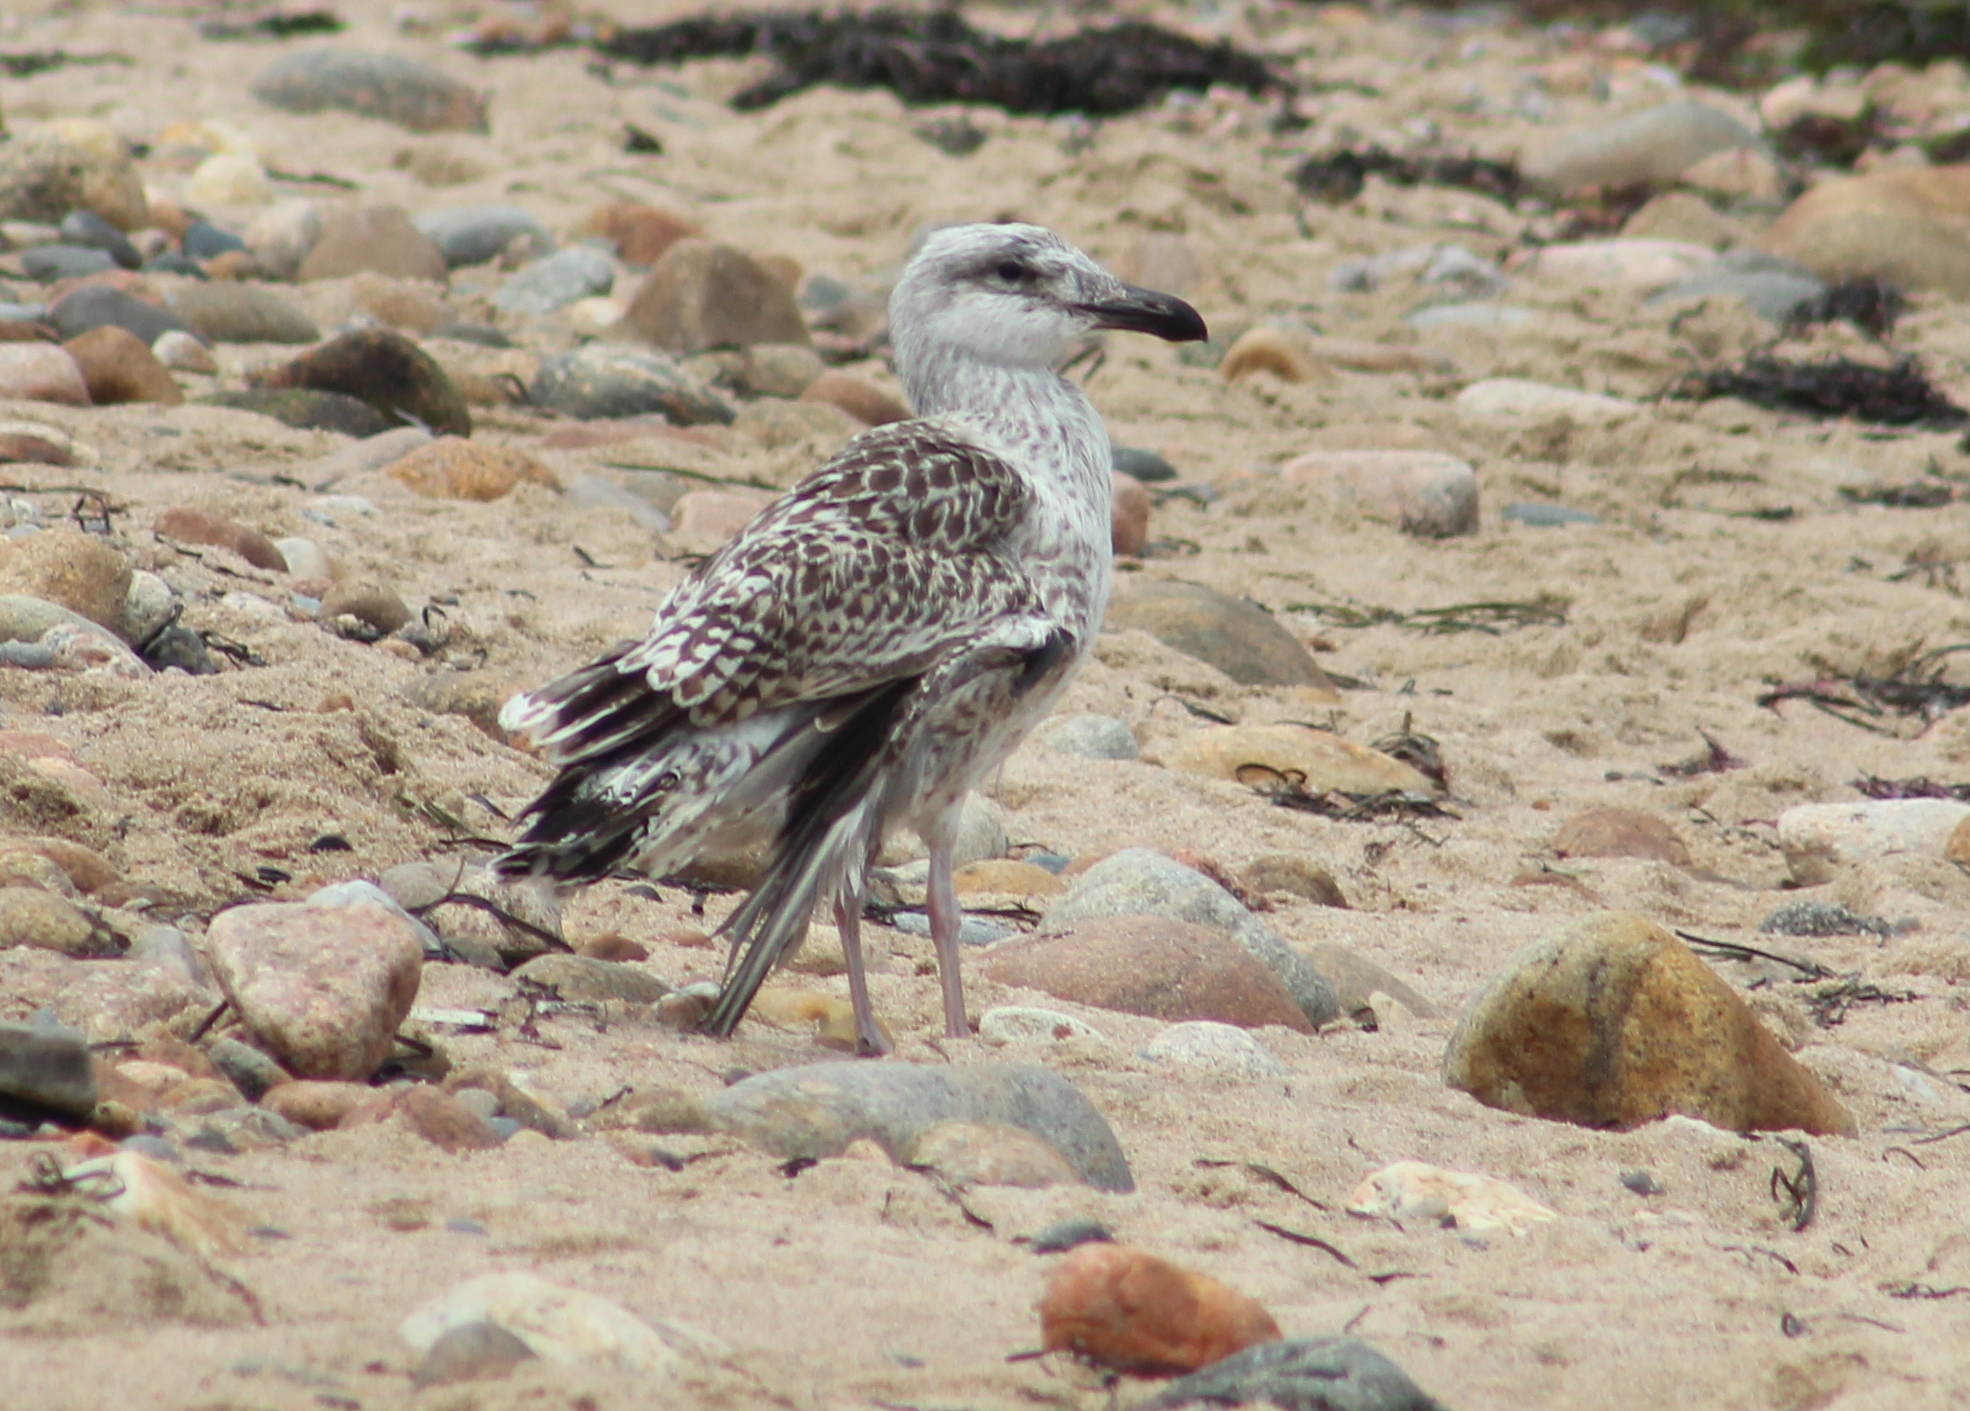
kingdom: Animalia
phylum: Chordata
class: Aves
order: Charadriiformes
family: Laridae
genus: Larus
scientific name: Larus marinus
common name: Great black-backed gull
